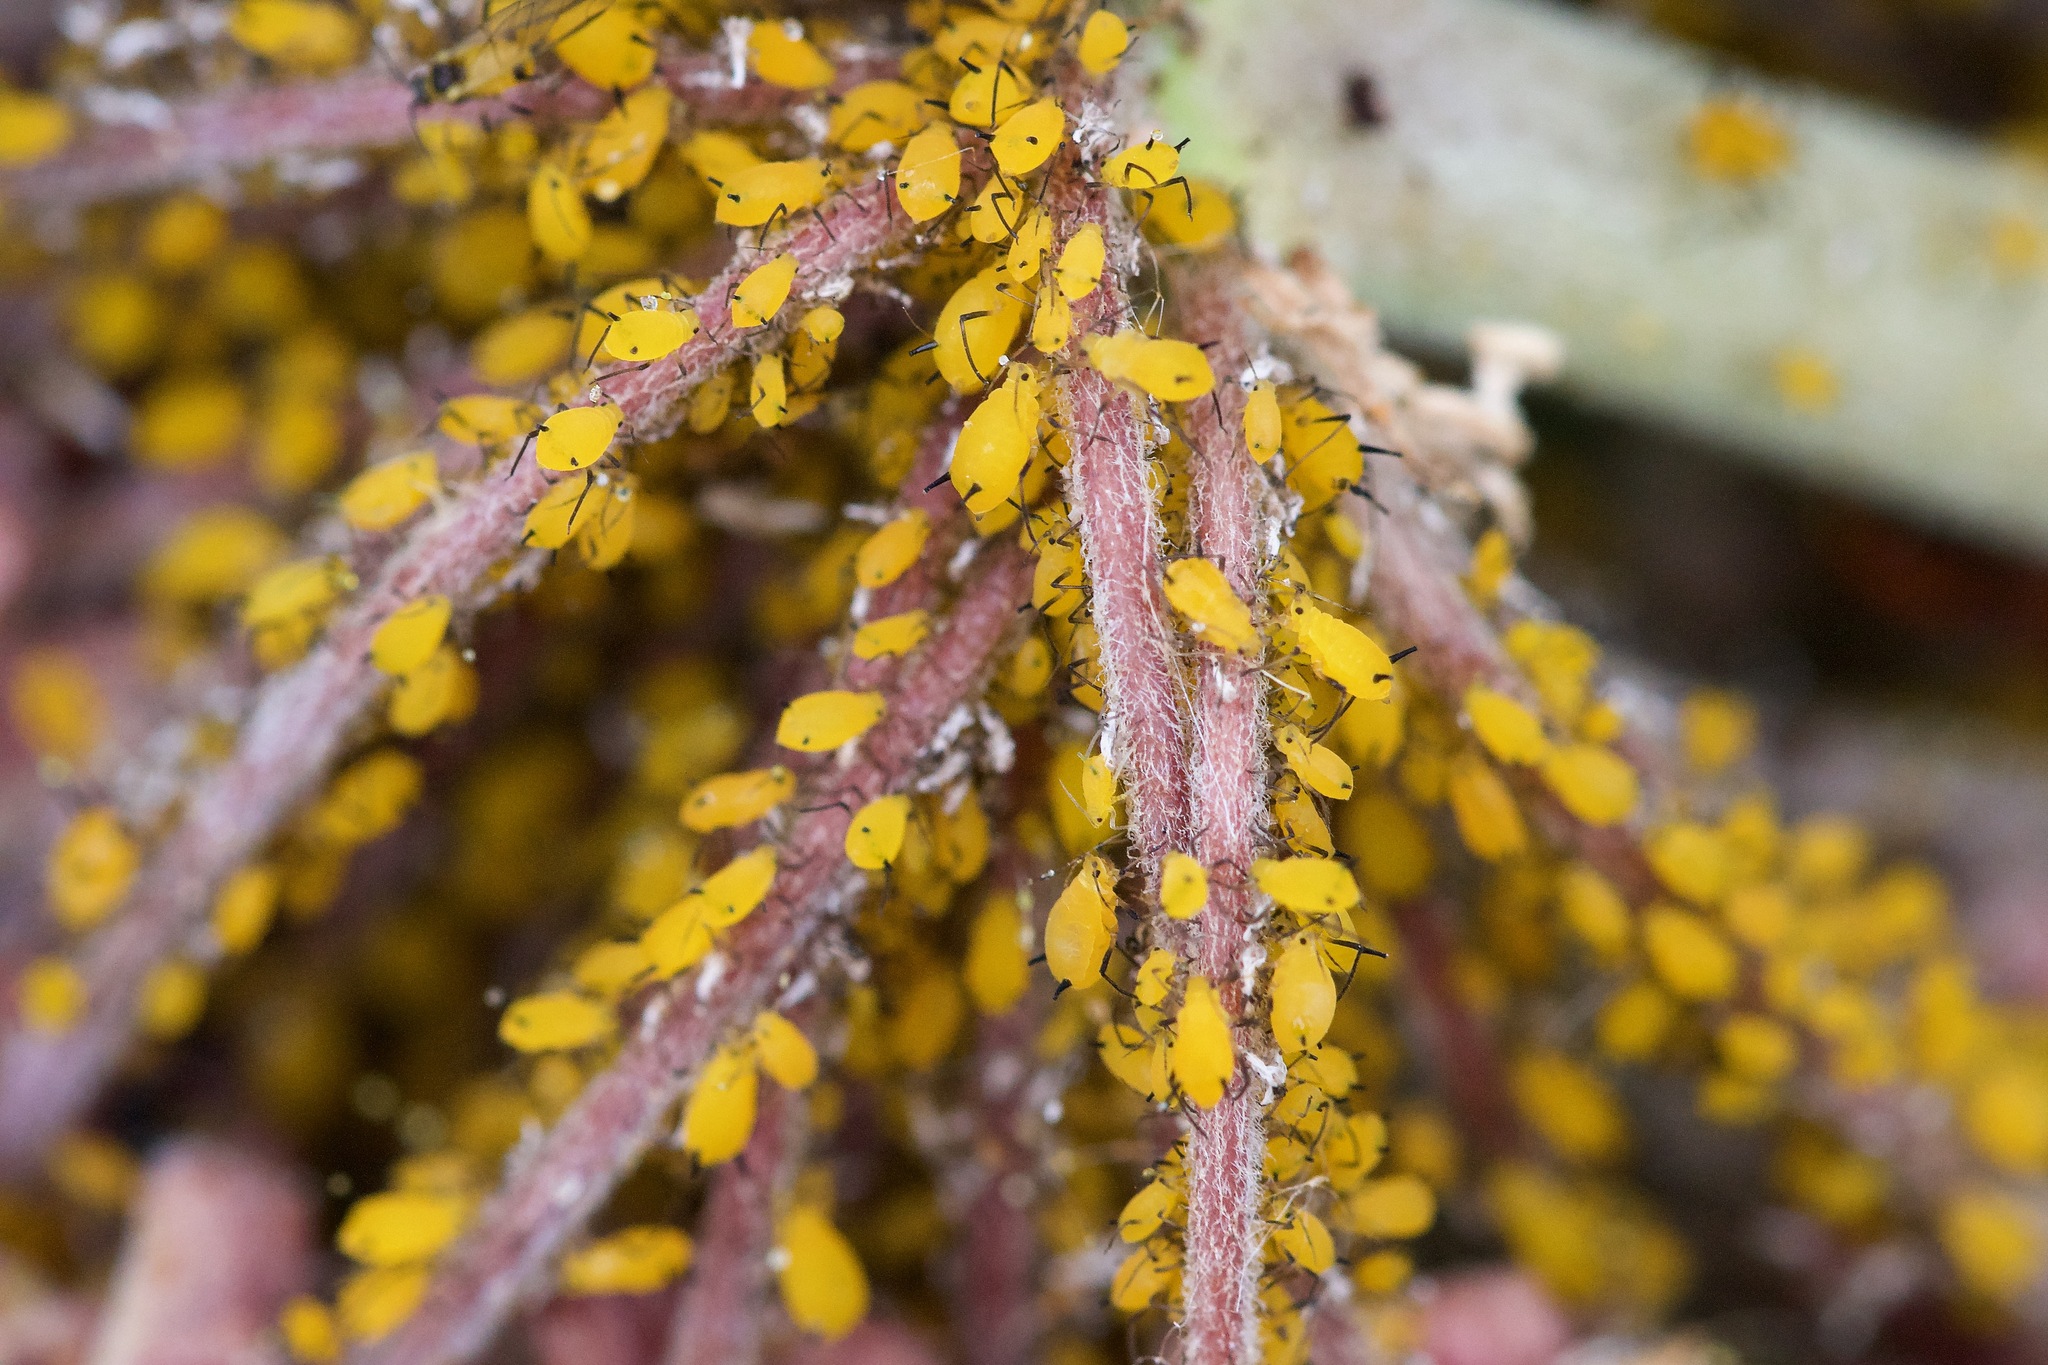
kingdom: Animalia
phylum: Arthropoda
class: Insecta
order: Hemiptera
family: Aphididae
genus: Aphis
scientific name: Aphis nerii
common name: Oleander aphid
